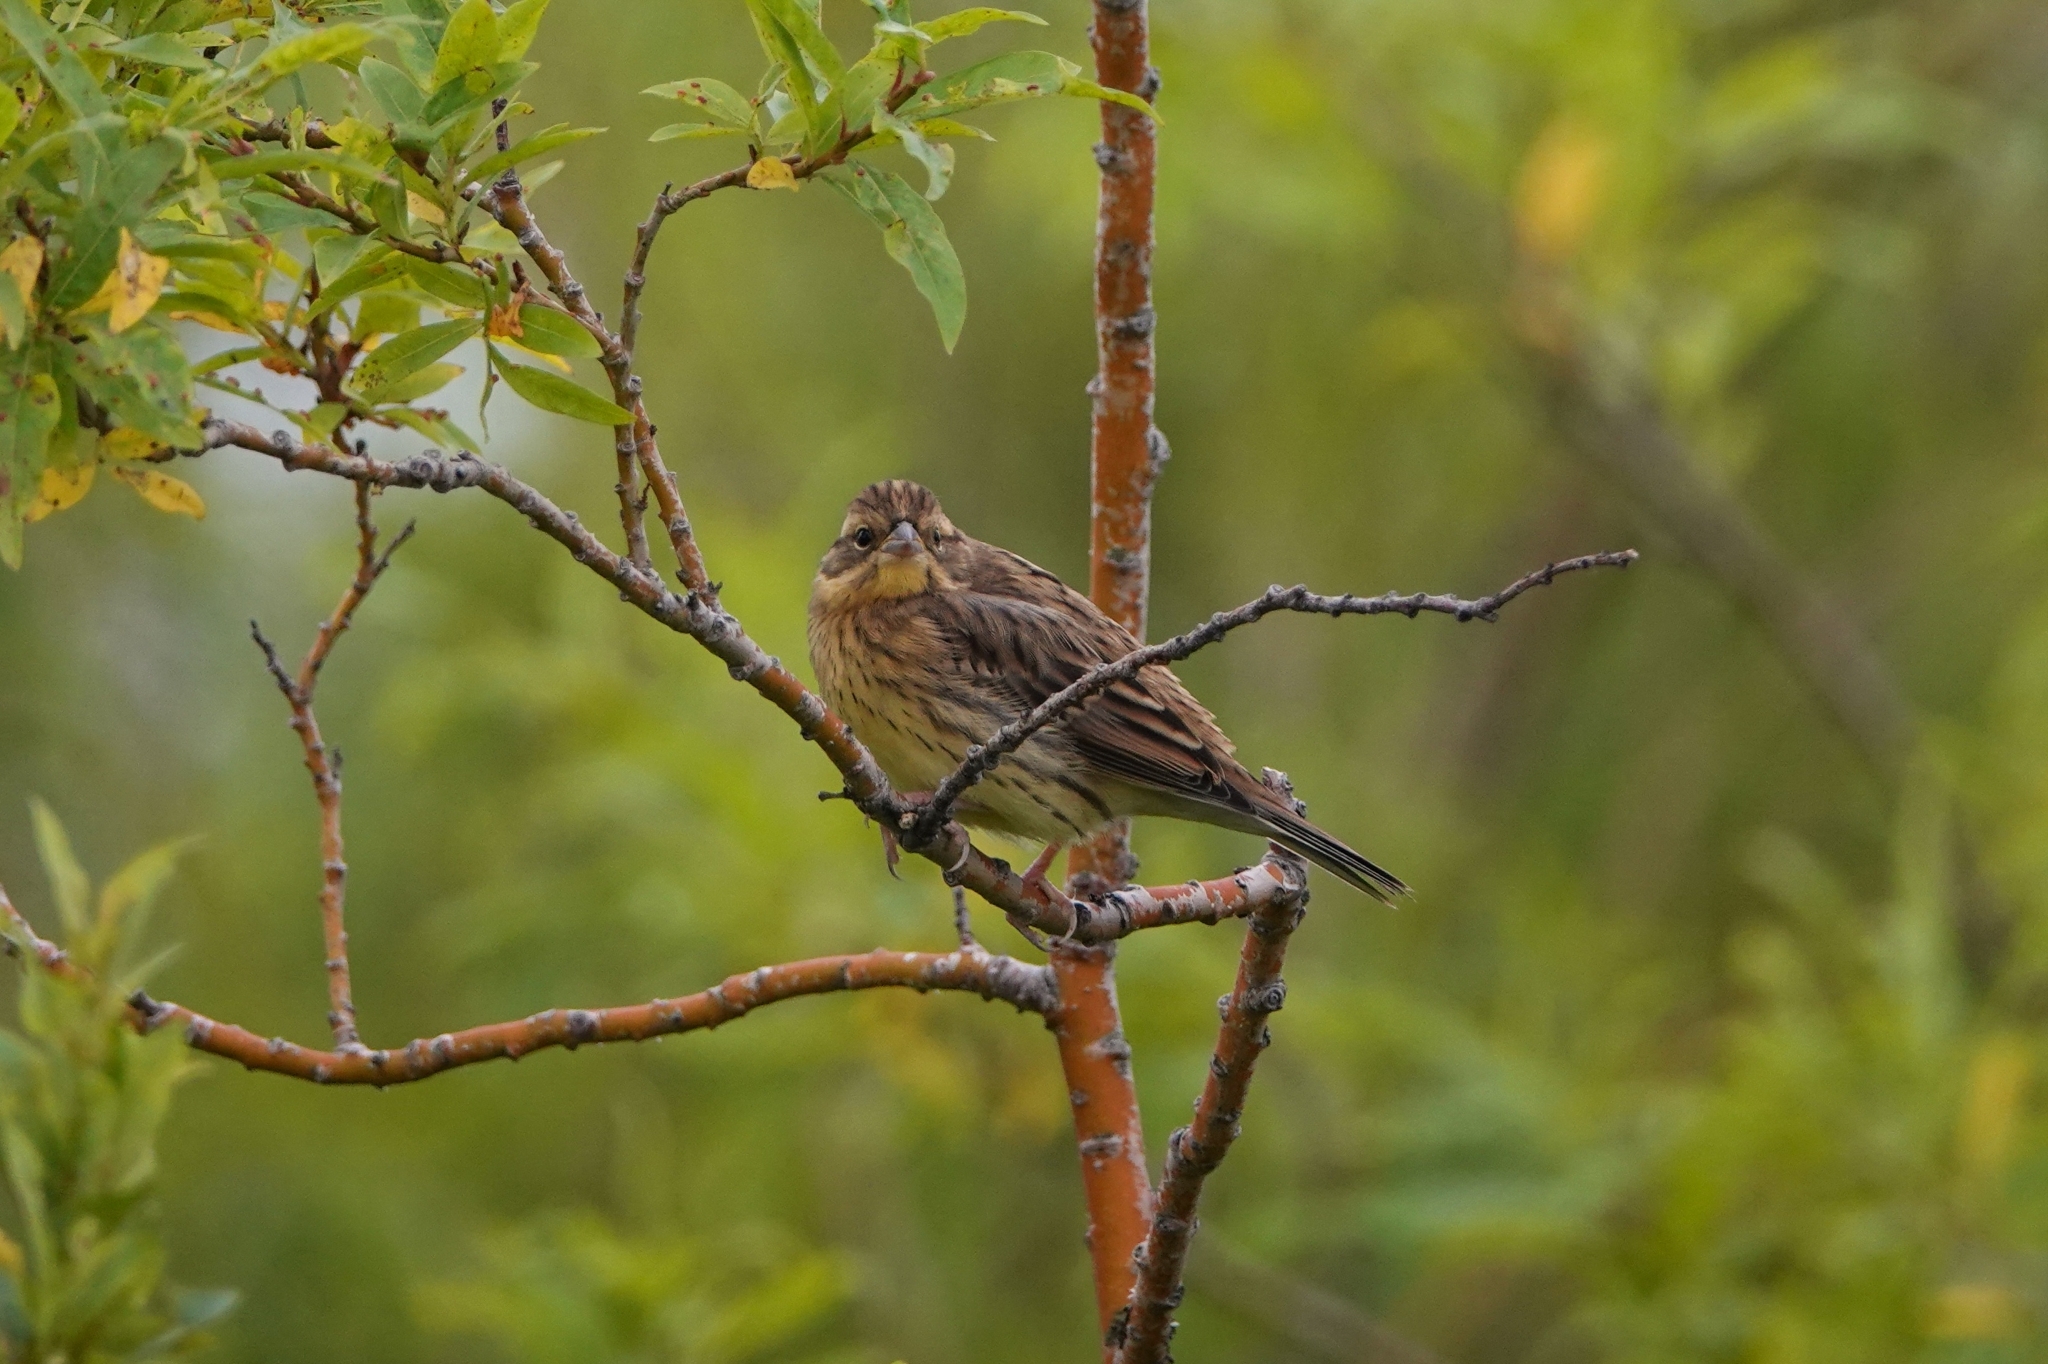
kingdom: Animalia
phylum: Chordata
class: Aves
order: Passeriformes
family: Emberizidae
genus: Emberiza
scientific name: Emberiza aureola
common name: Yellow-breasted bunting
